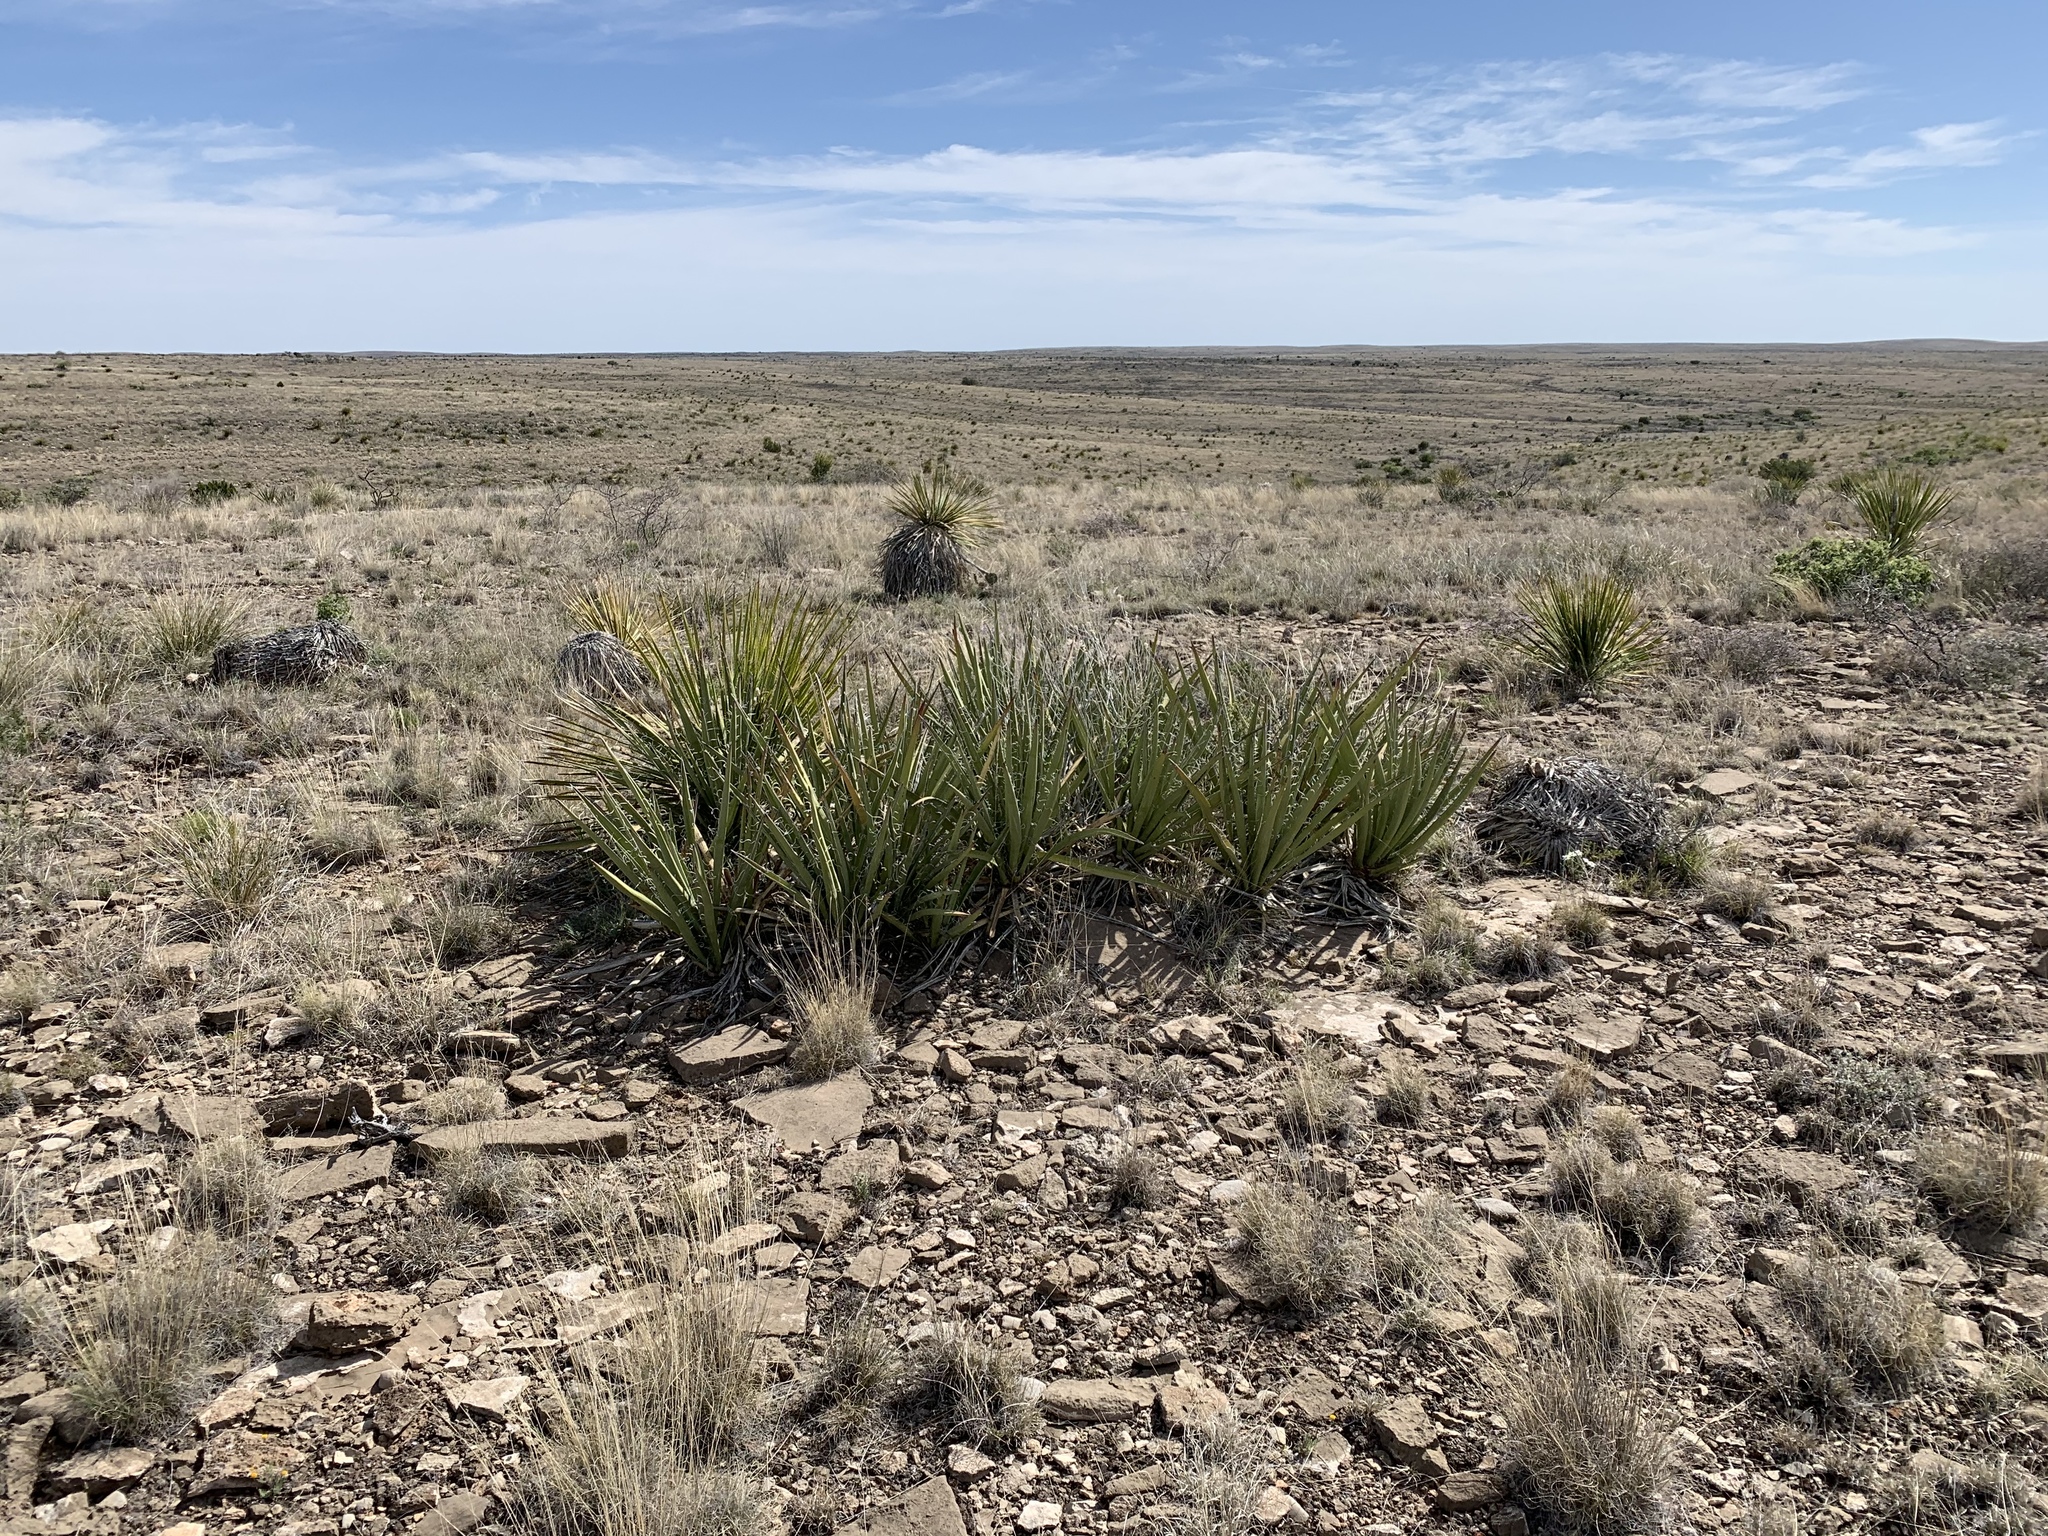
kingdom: Plantae
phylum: Tracheophyta
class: Liliopsida
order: Asparagales
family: Asparagaceae
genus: Yucca
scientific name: Yucca baccata
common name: Banana yucca
